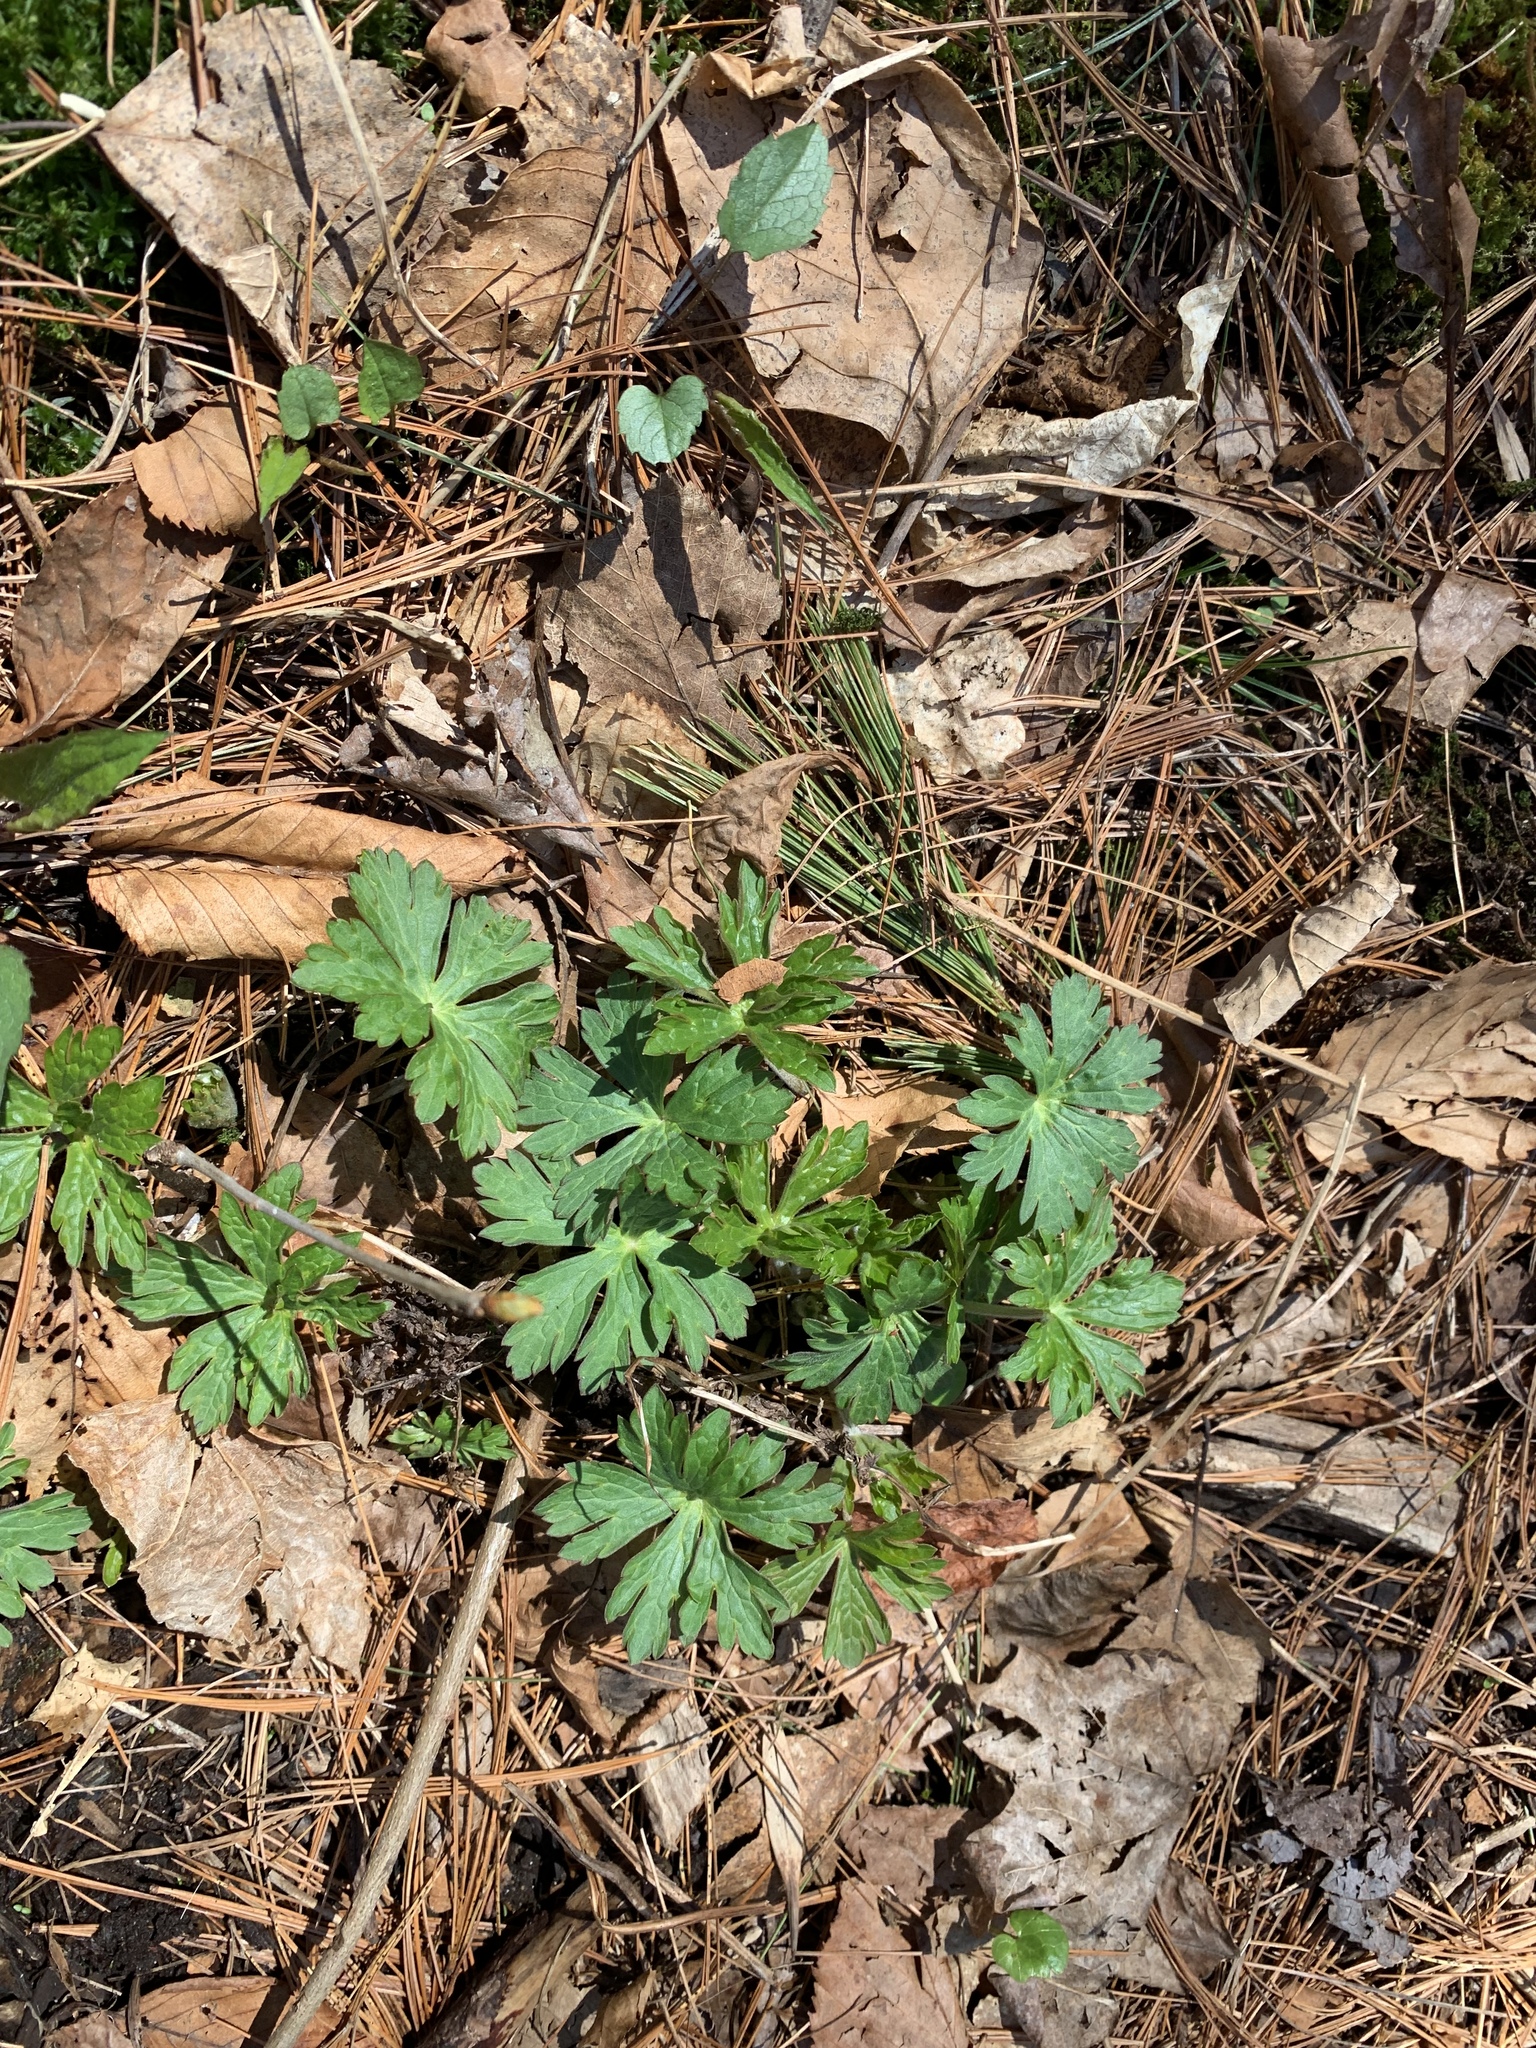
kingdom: Plantae
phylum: Tracheophyta
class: Magnoliopsida
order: Geraniales
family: Geraniaceae
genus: Geranium
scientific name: Geranium maculatum
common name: Spotted geranium
